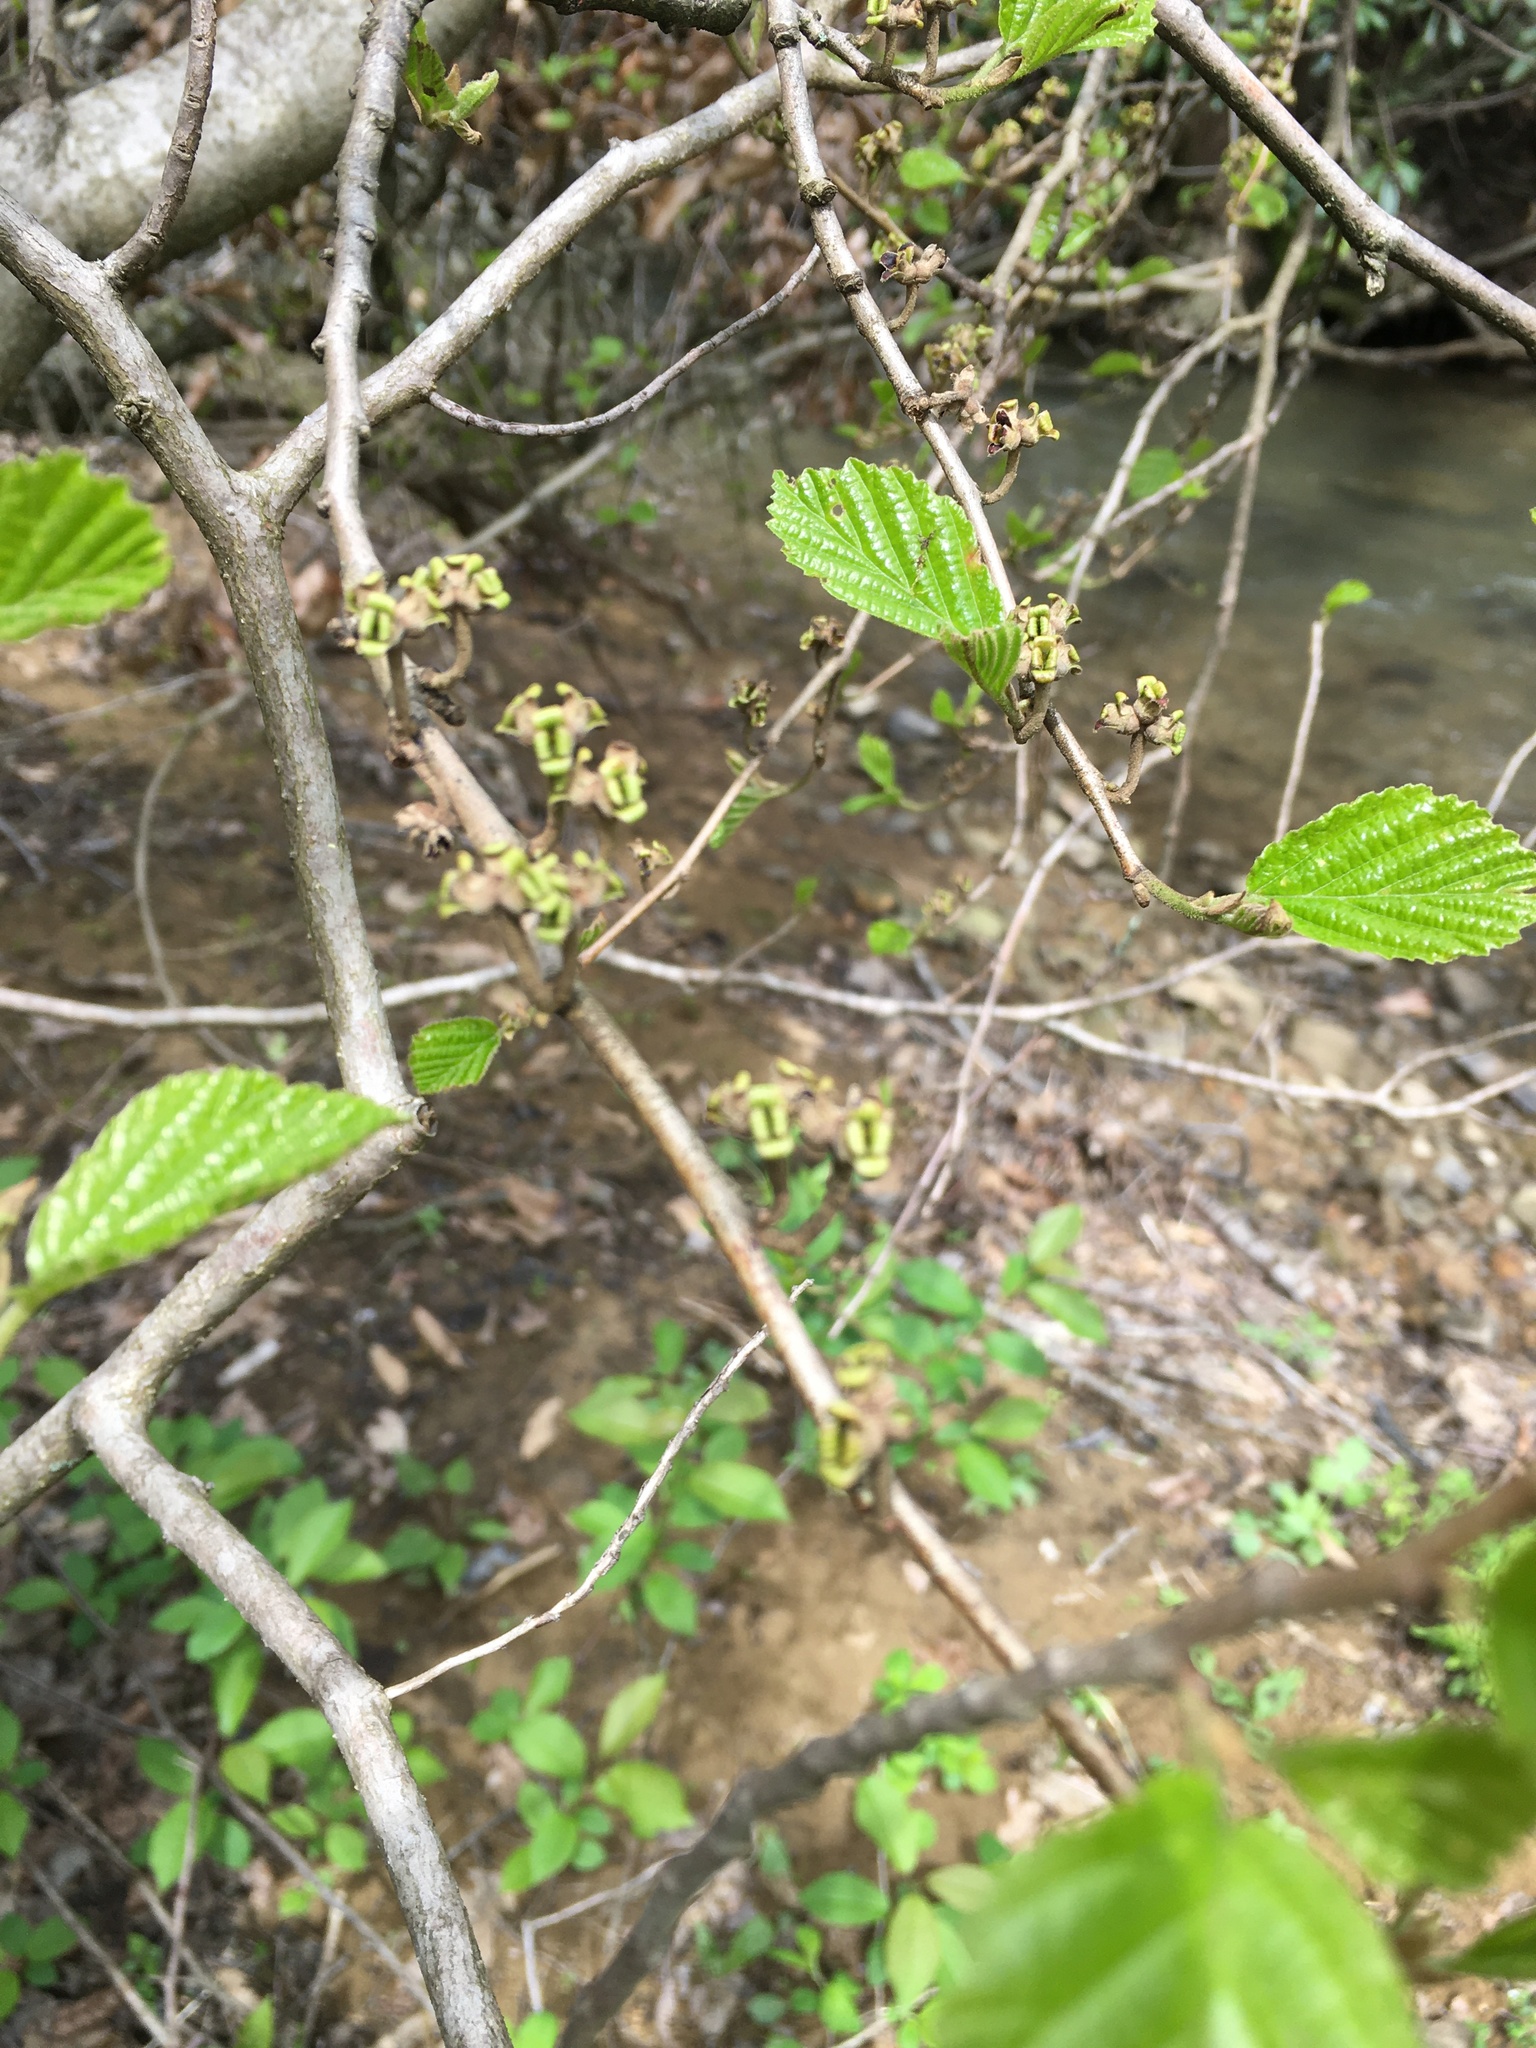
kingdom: Plantae
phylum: Tracheophyta
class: Magnoliopsida
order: Saxifragales
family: Hamamelidaceae
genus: Hamamelis
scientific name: Hamamelis virginiana
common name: Witch-hazel
